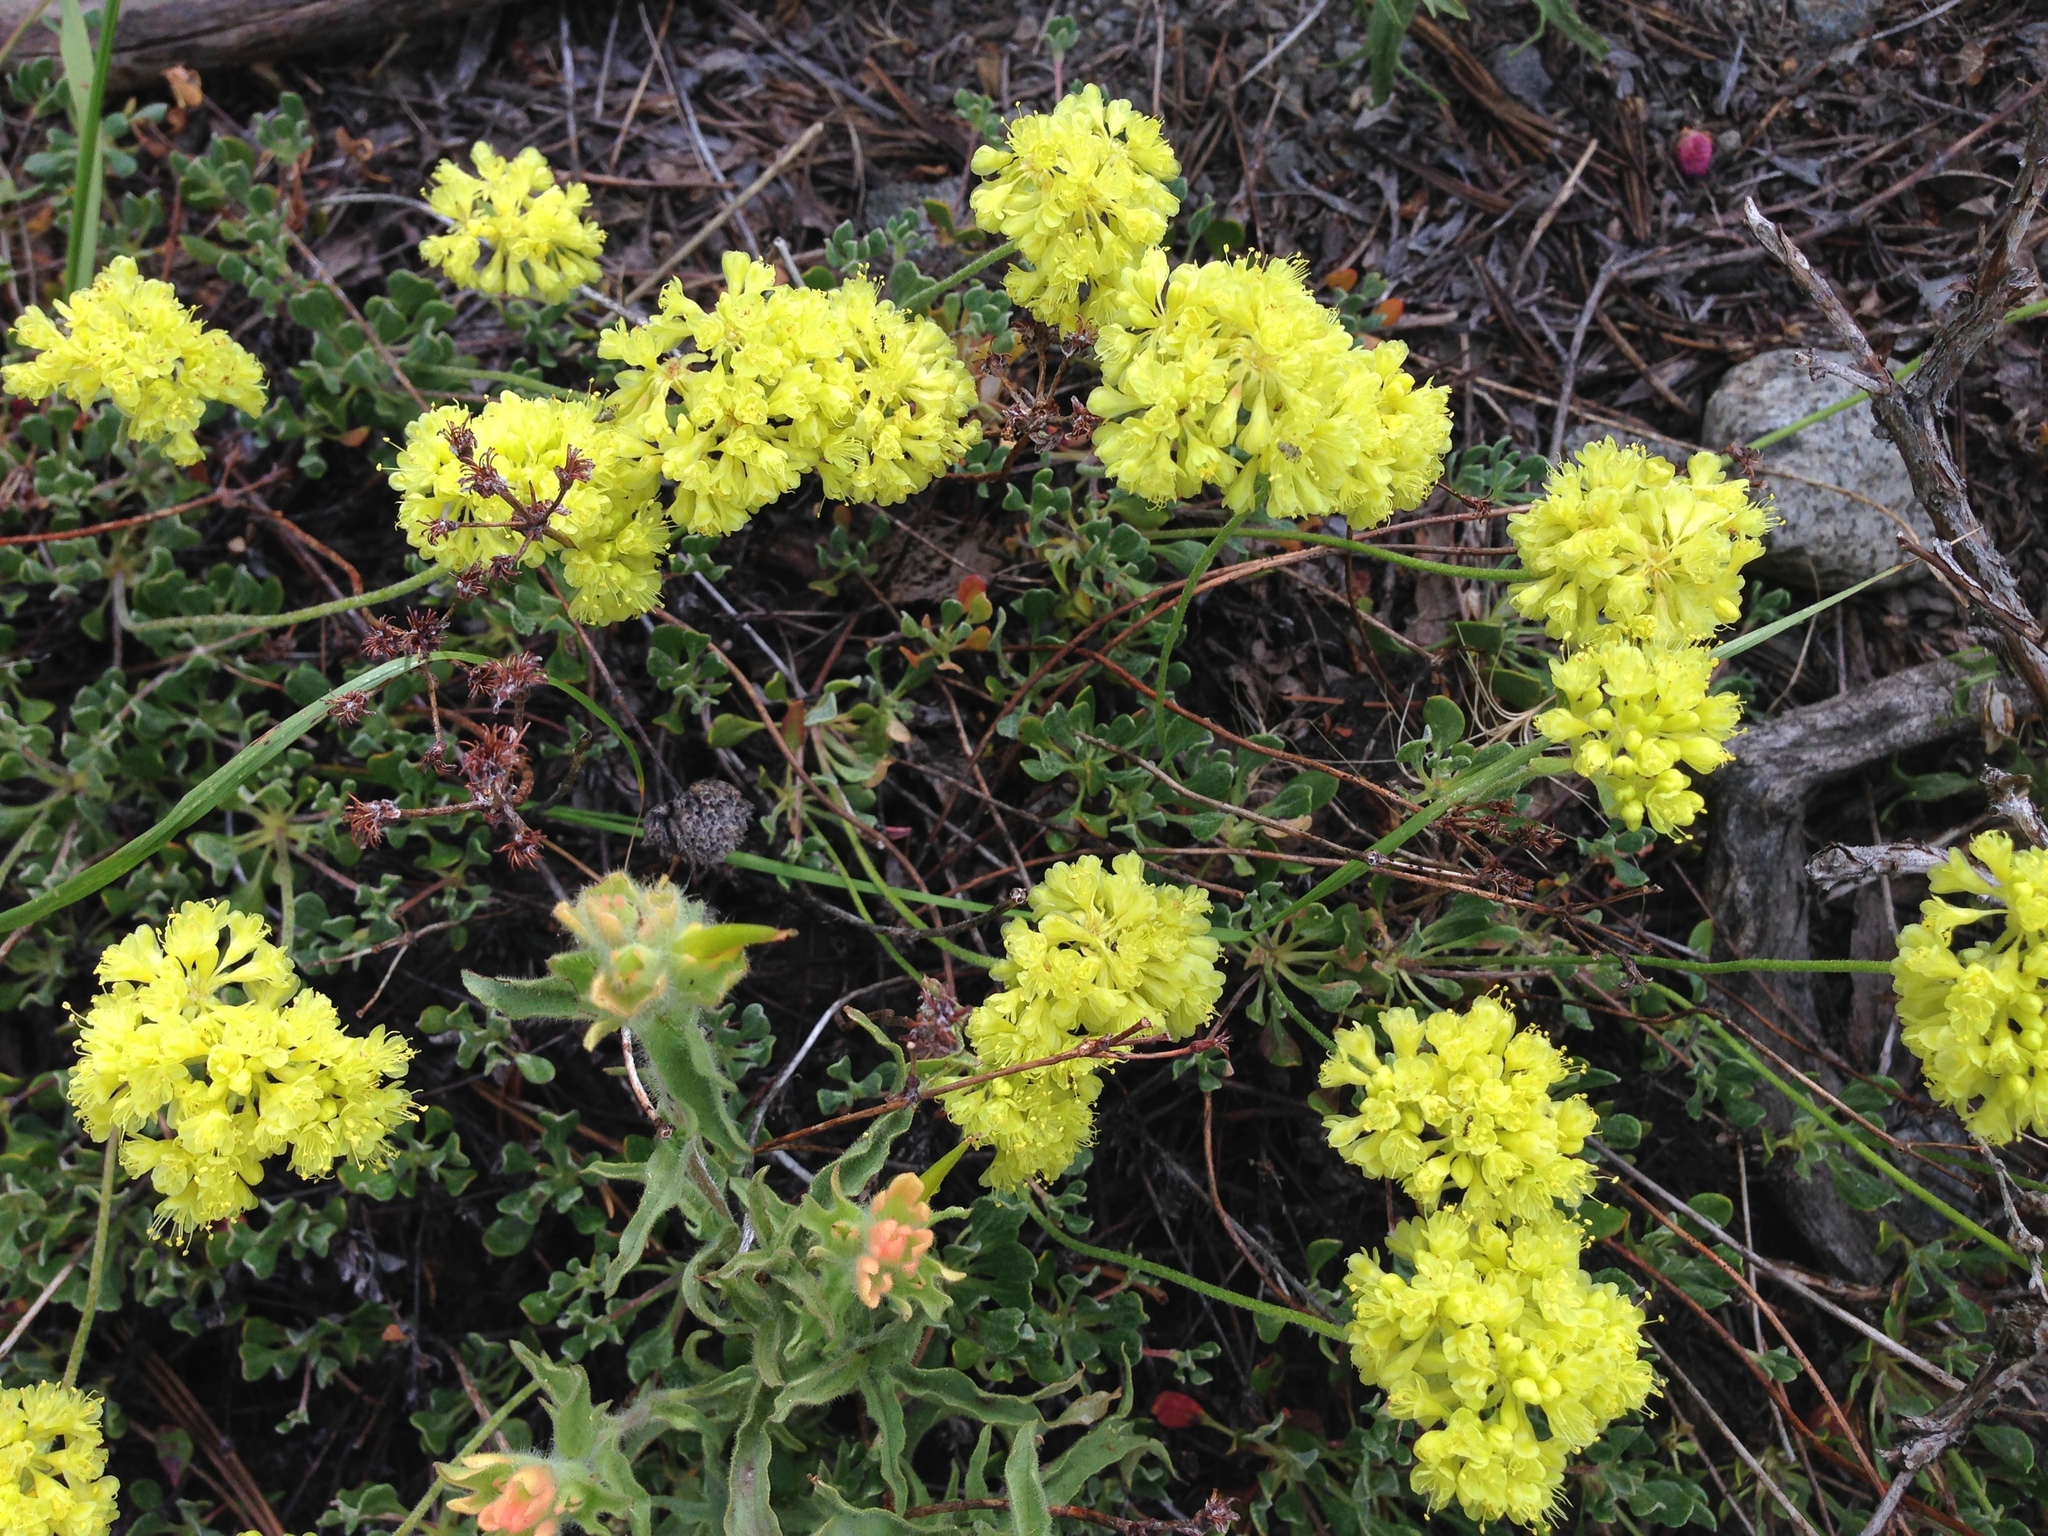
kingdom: Plantae
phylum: Tracheophyta
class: Magnoliopsida
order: Caryophyllales
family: Polygonaceae
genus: Eriogonum
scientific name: Eriogonum umbellatum
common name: Sulfur-buckwheat
